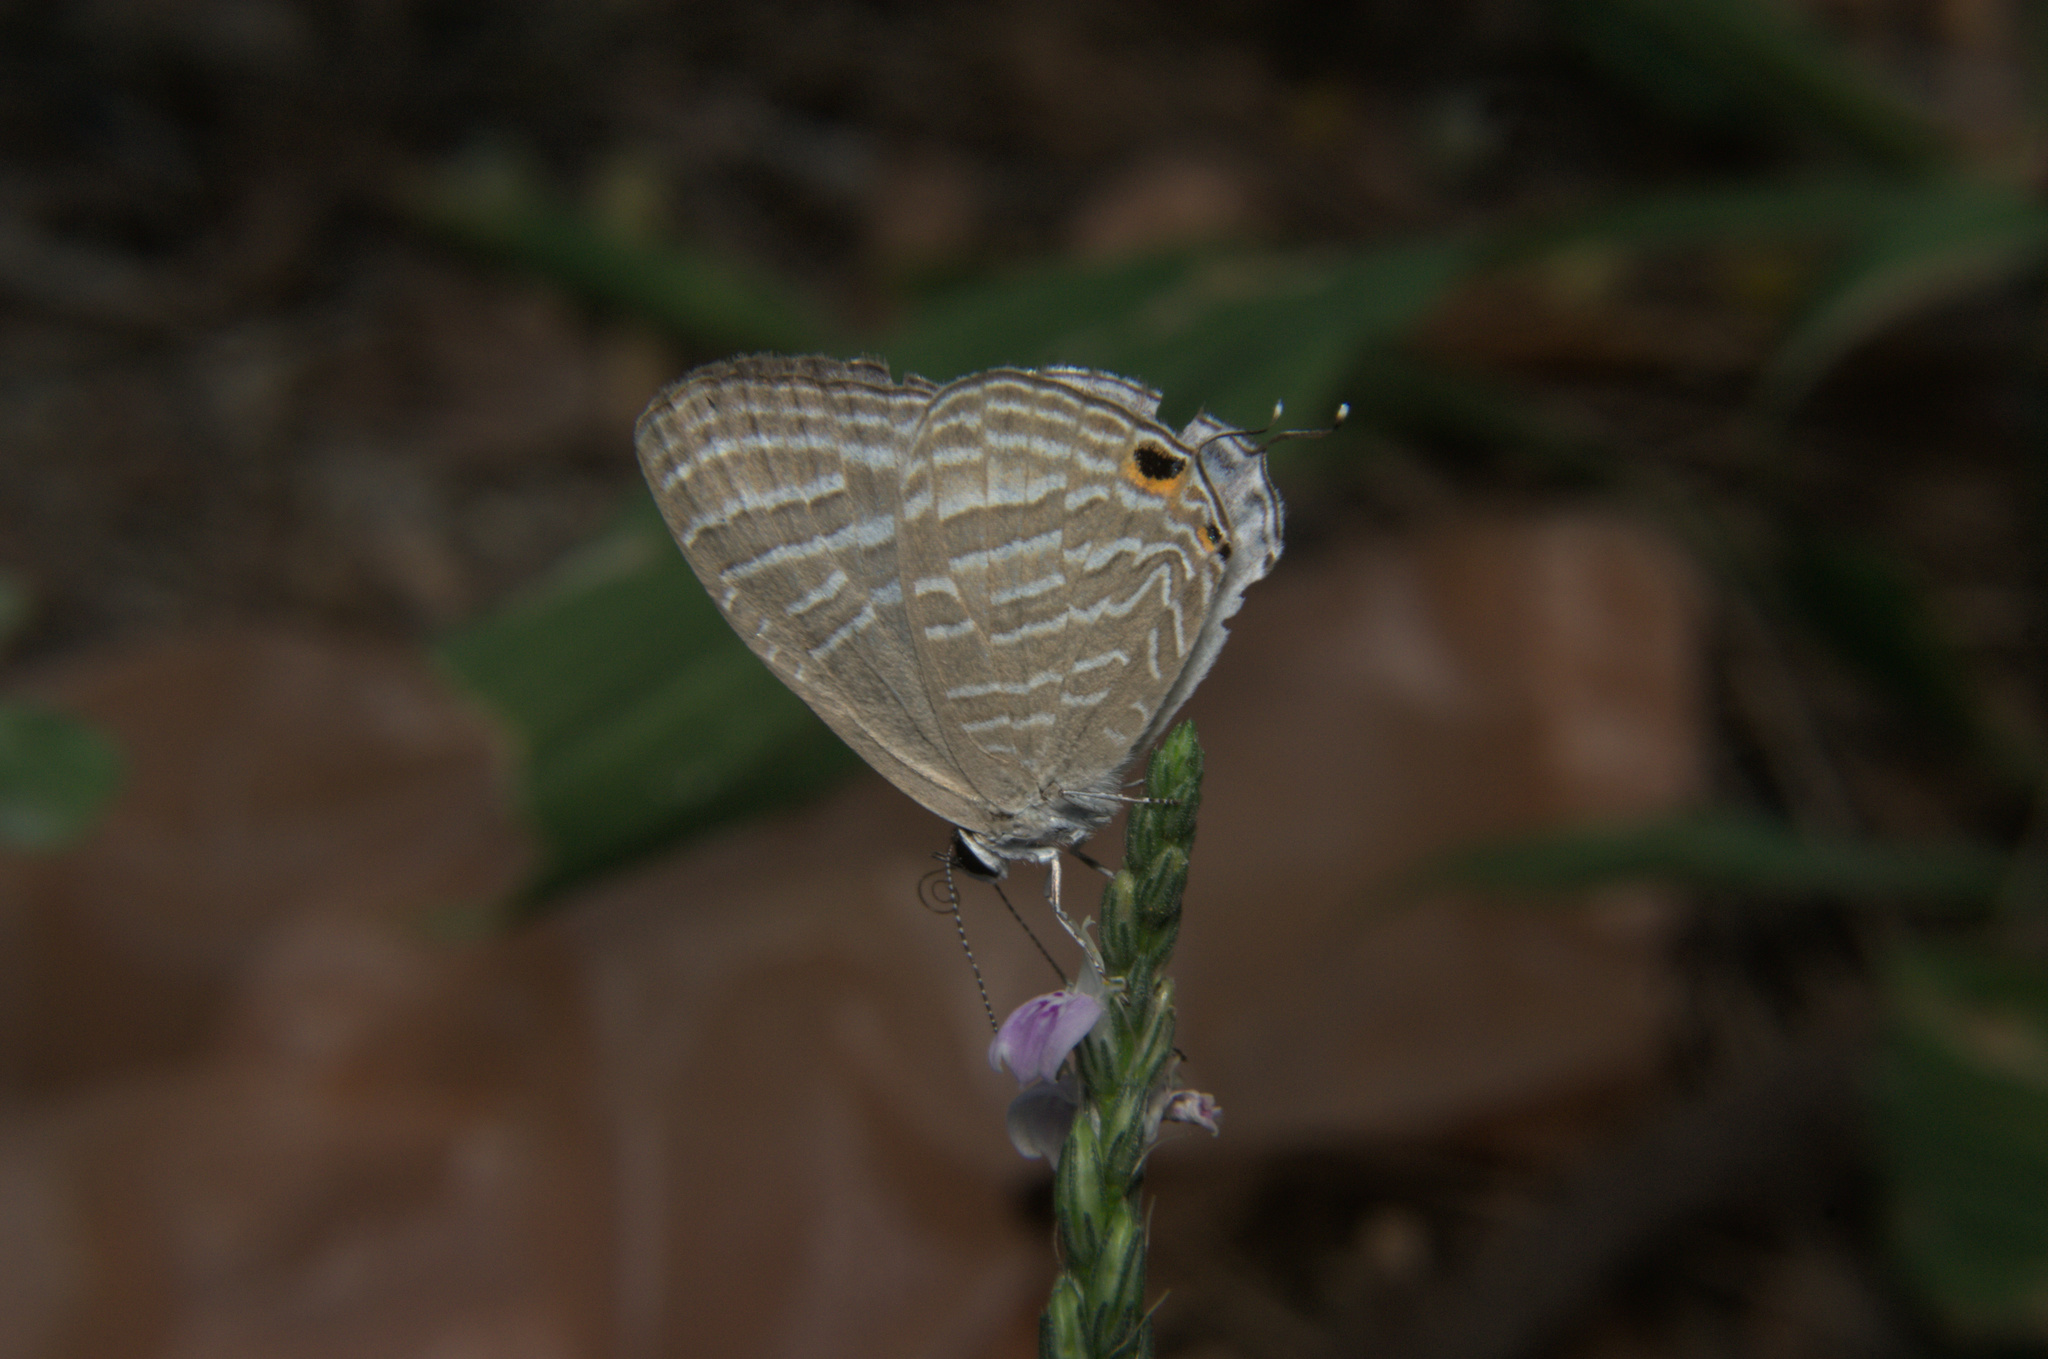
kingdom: Animalia
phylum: Arthropoda
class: Insecta
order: Lepidoptera
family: Lycaenidae
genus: Jamides
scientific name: Jamides celeno
